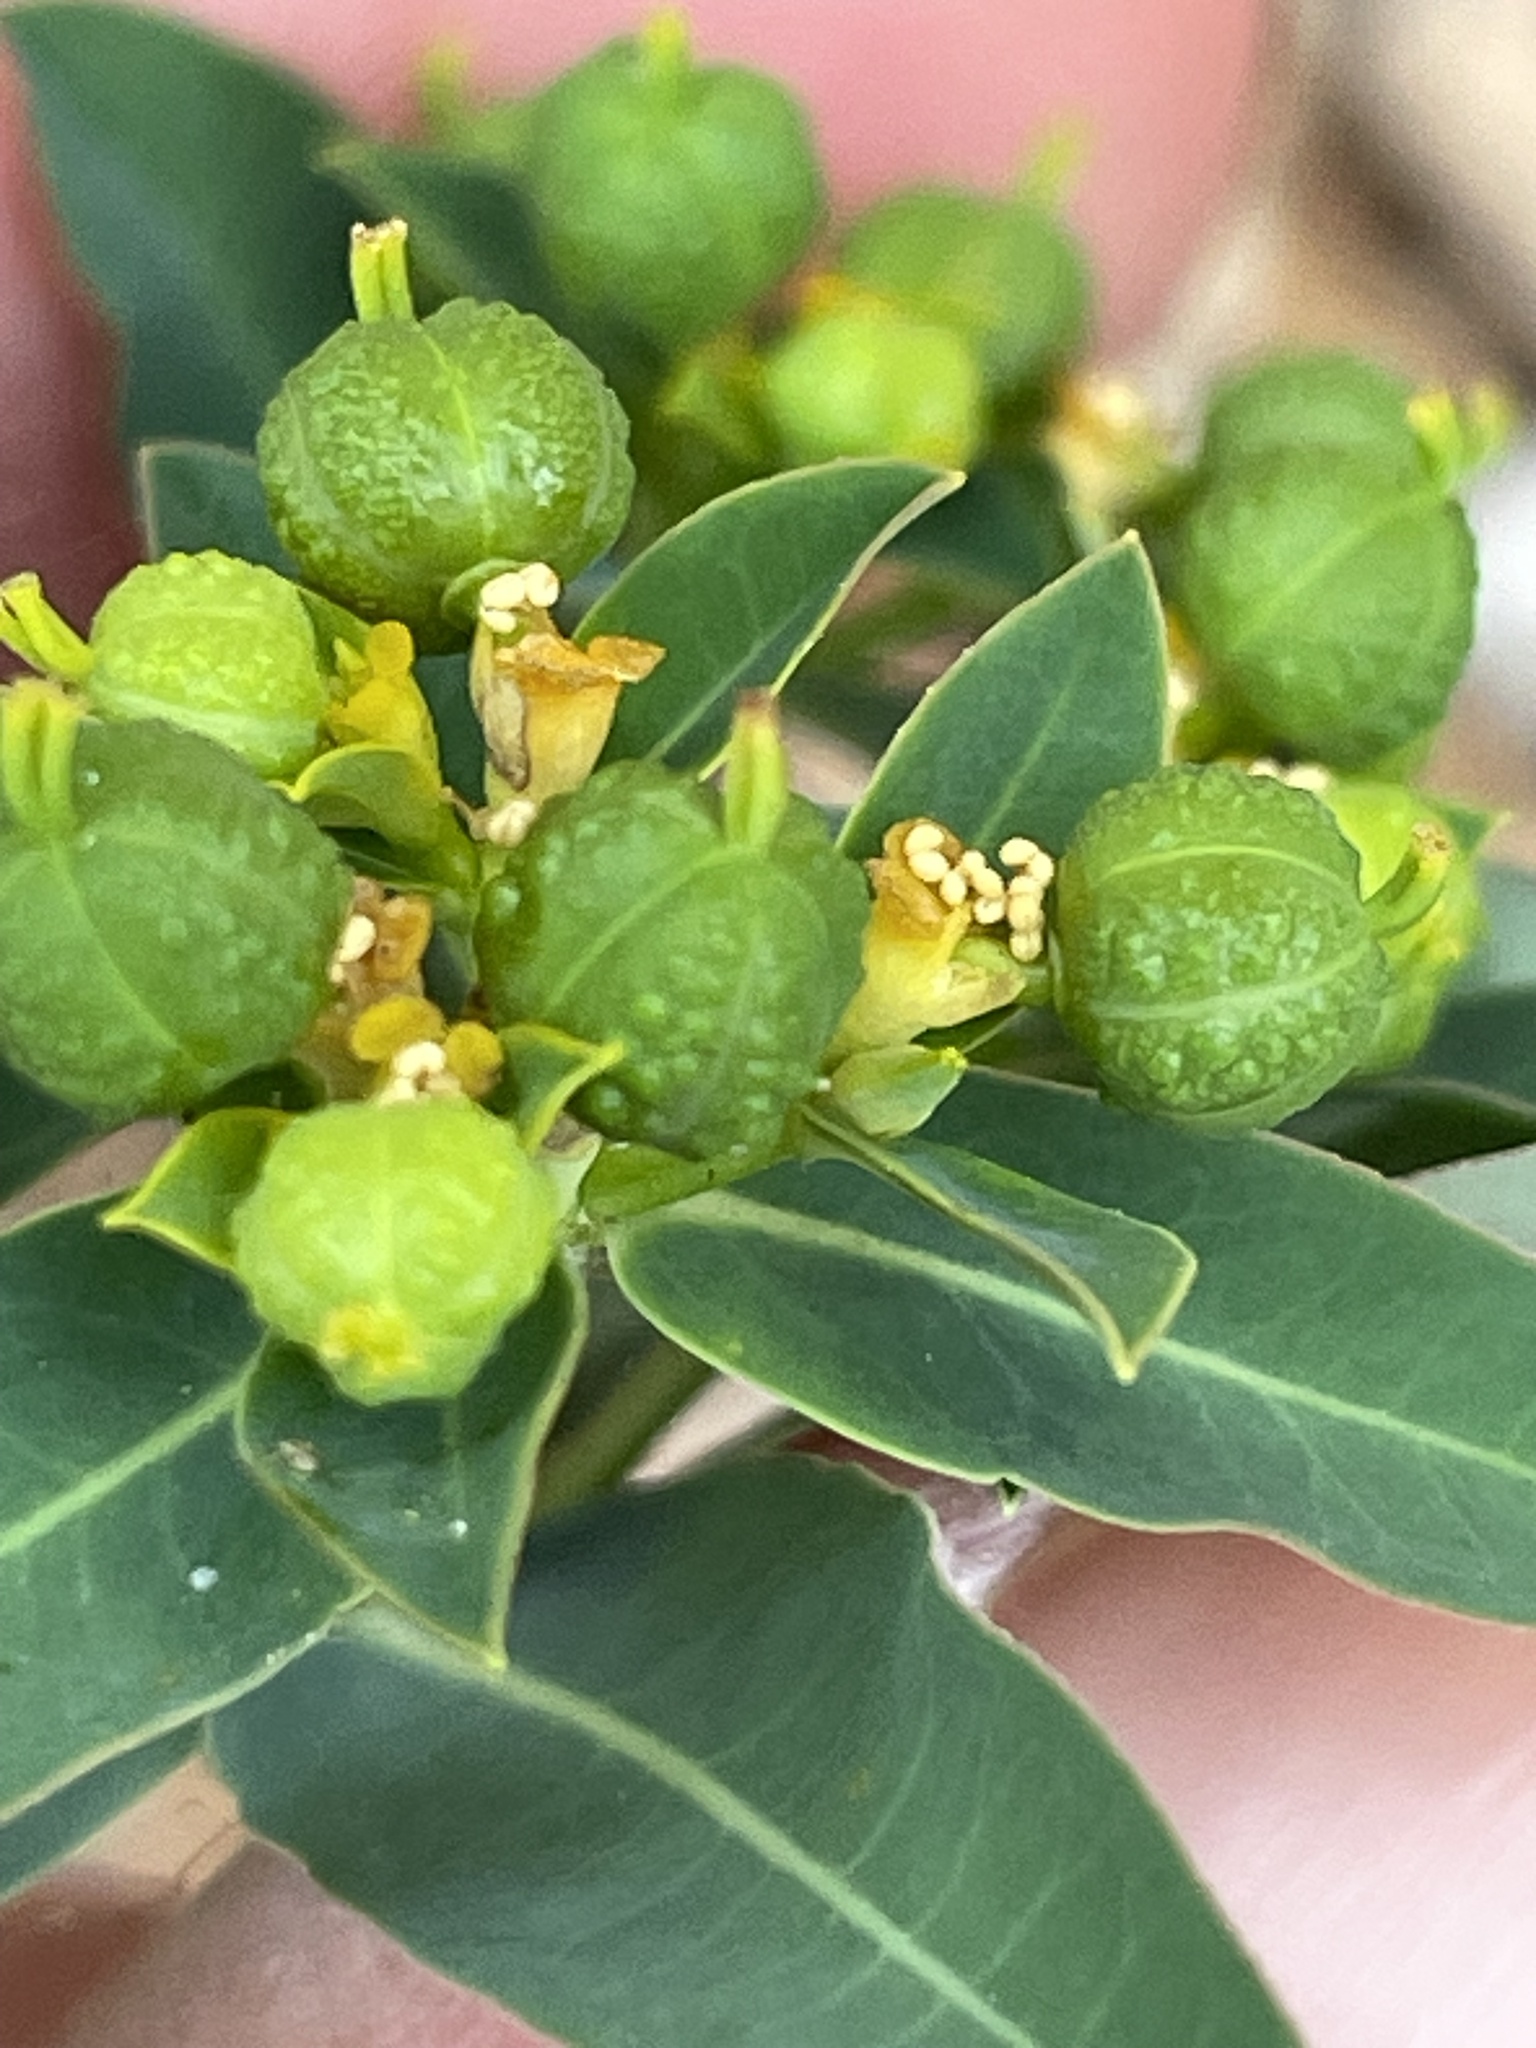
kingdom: Plantae
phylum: Tracheophyta
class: Magnoliopsida
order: Malpighiales
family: Euphorbiaceae
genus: Euphorbia
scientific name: Euphorbia oblongata
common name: Balkan spurge
